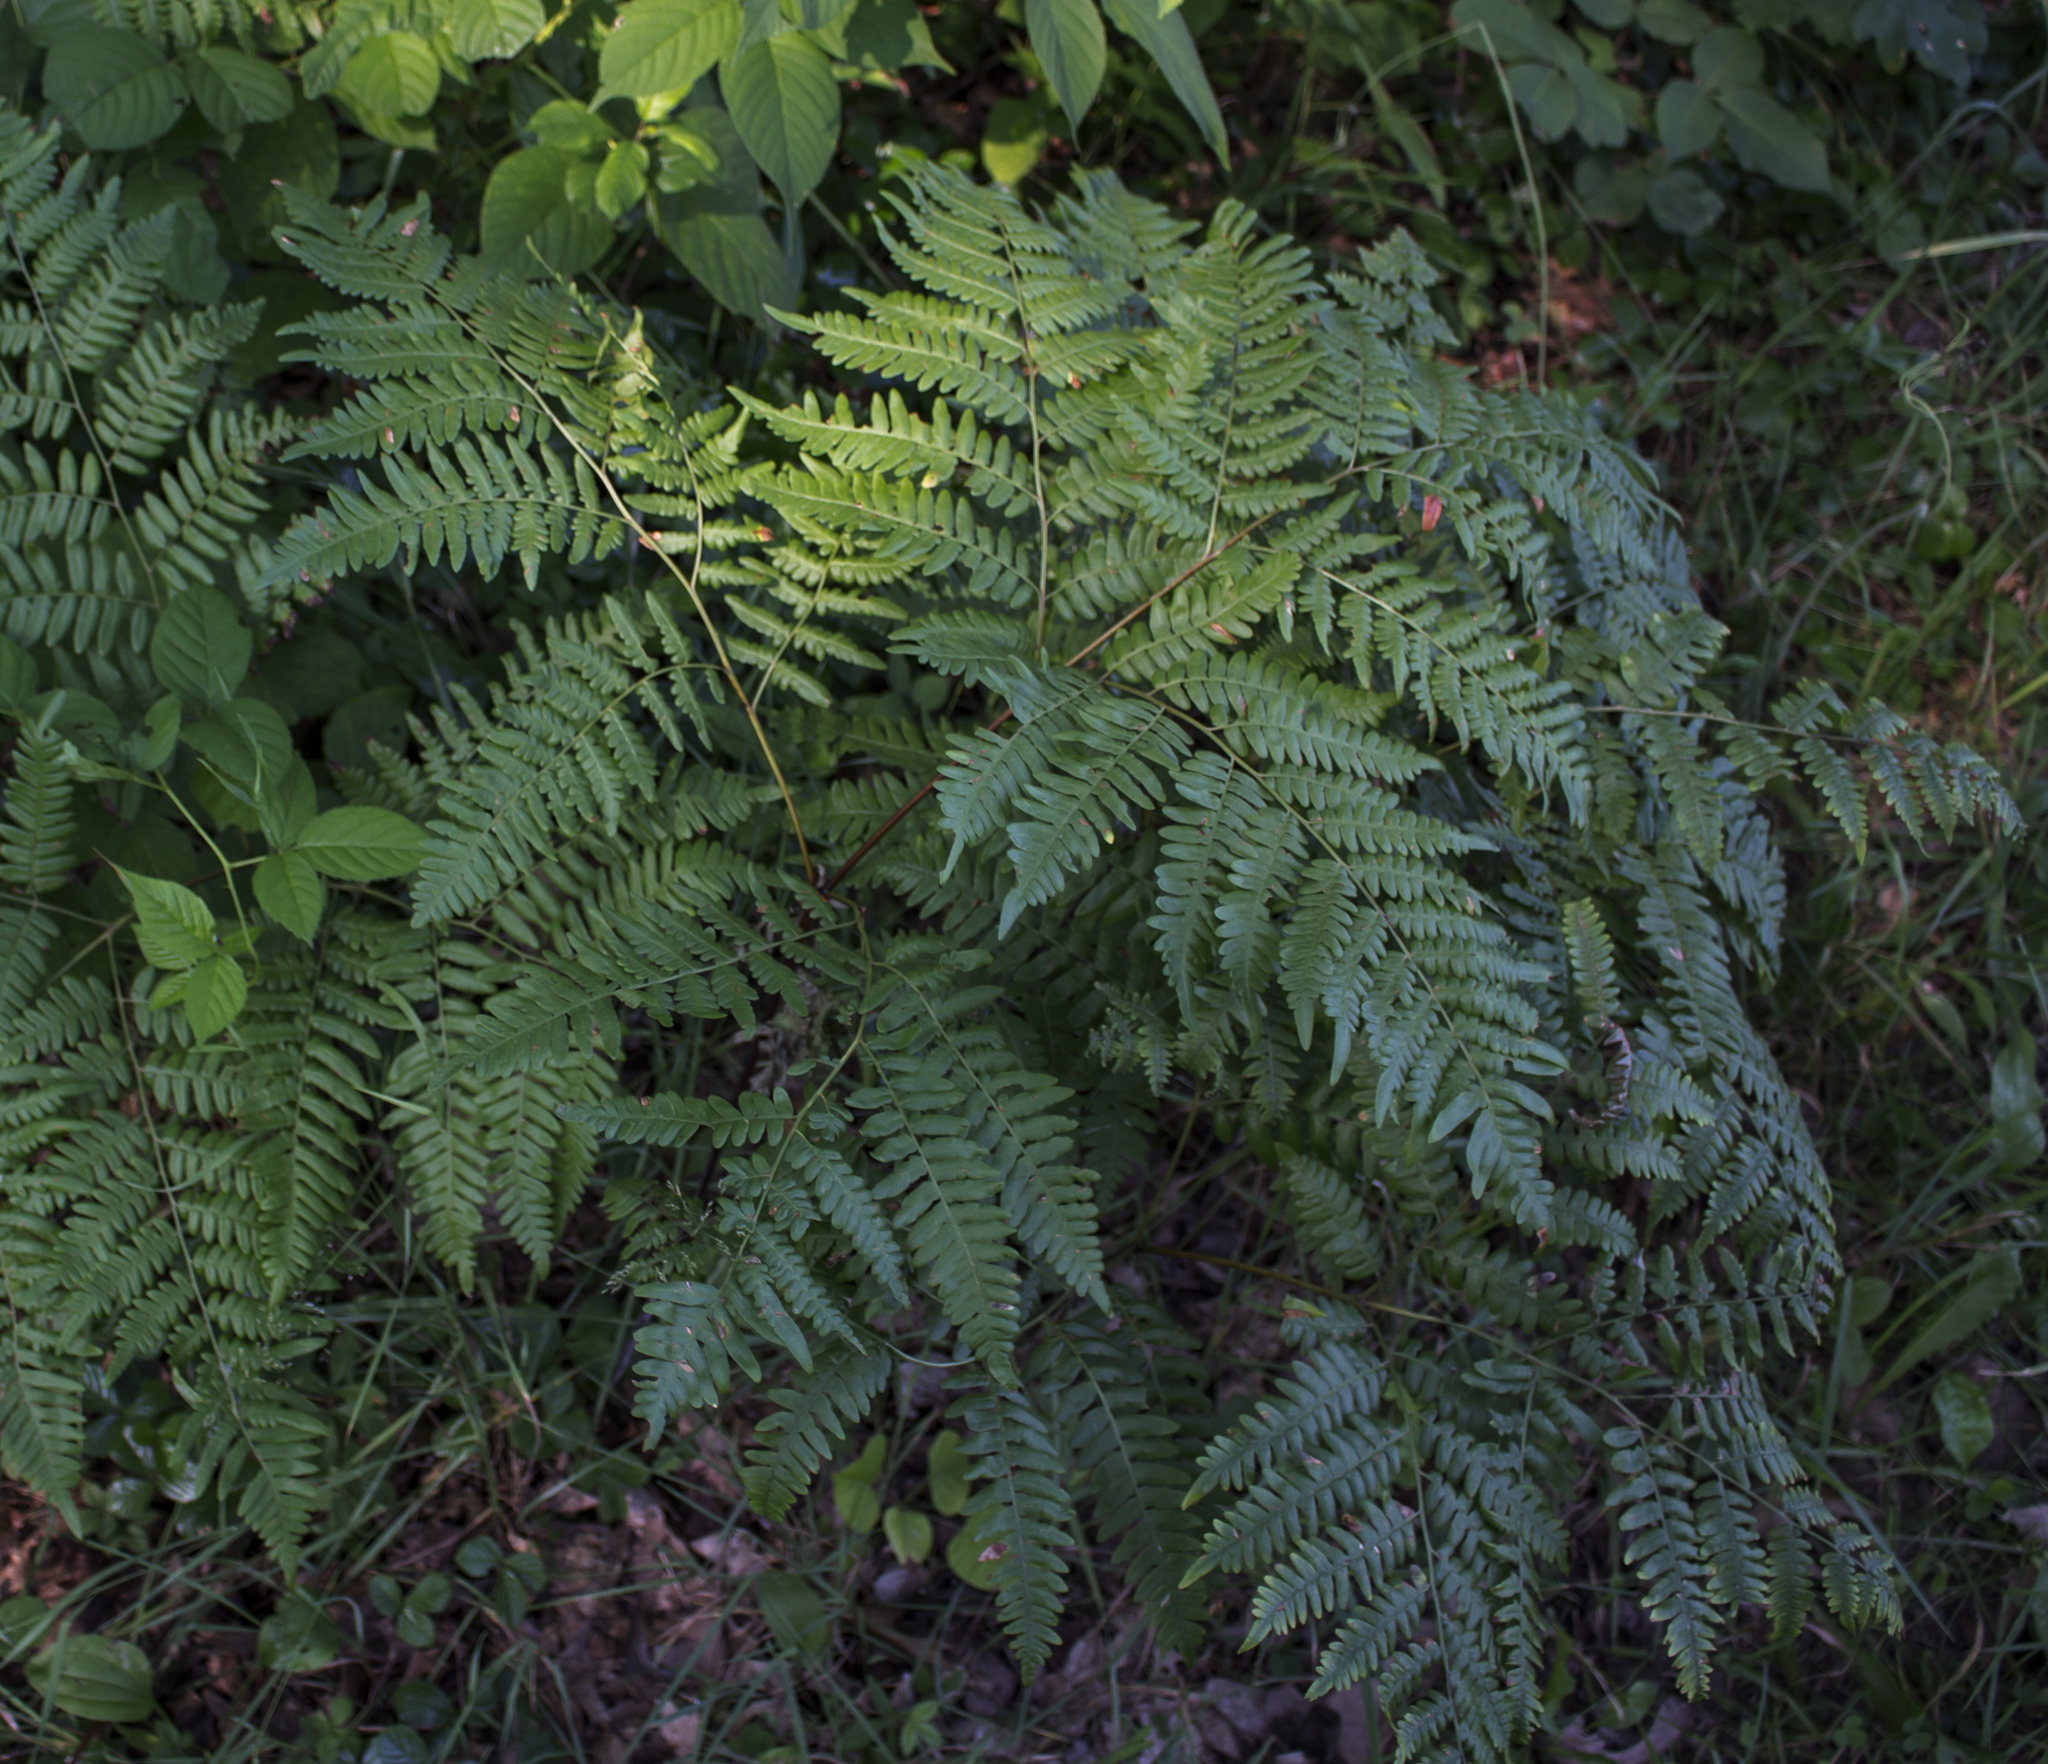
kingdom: Plantae
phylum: Tracheophyta
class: Polypodiopsida
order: Polypodiales
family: Dennstaedtiaceae
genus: Pteridium
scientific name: Pteridium aquilinum
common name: Bracken
